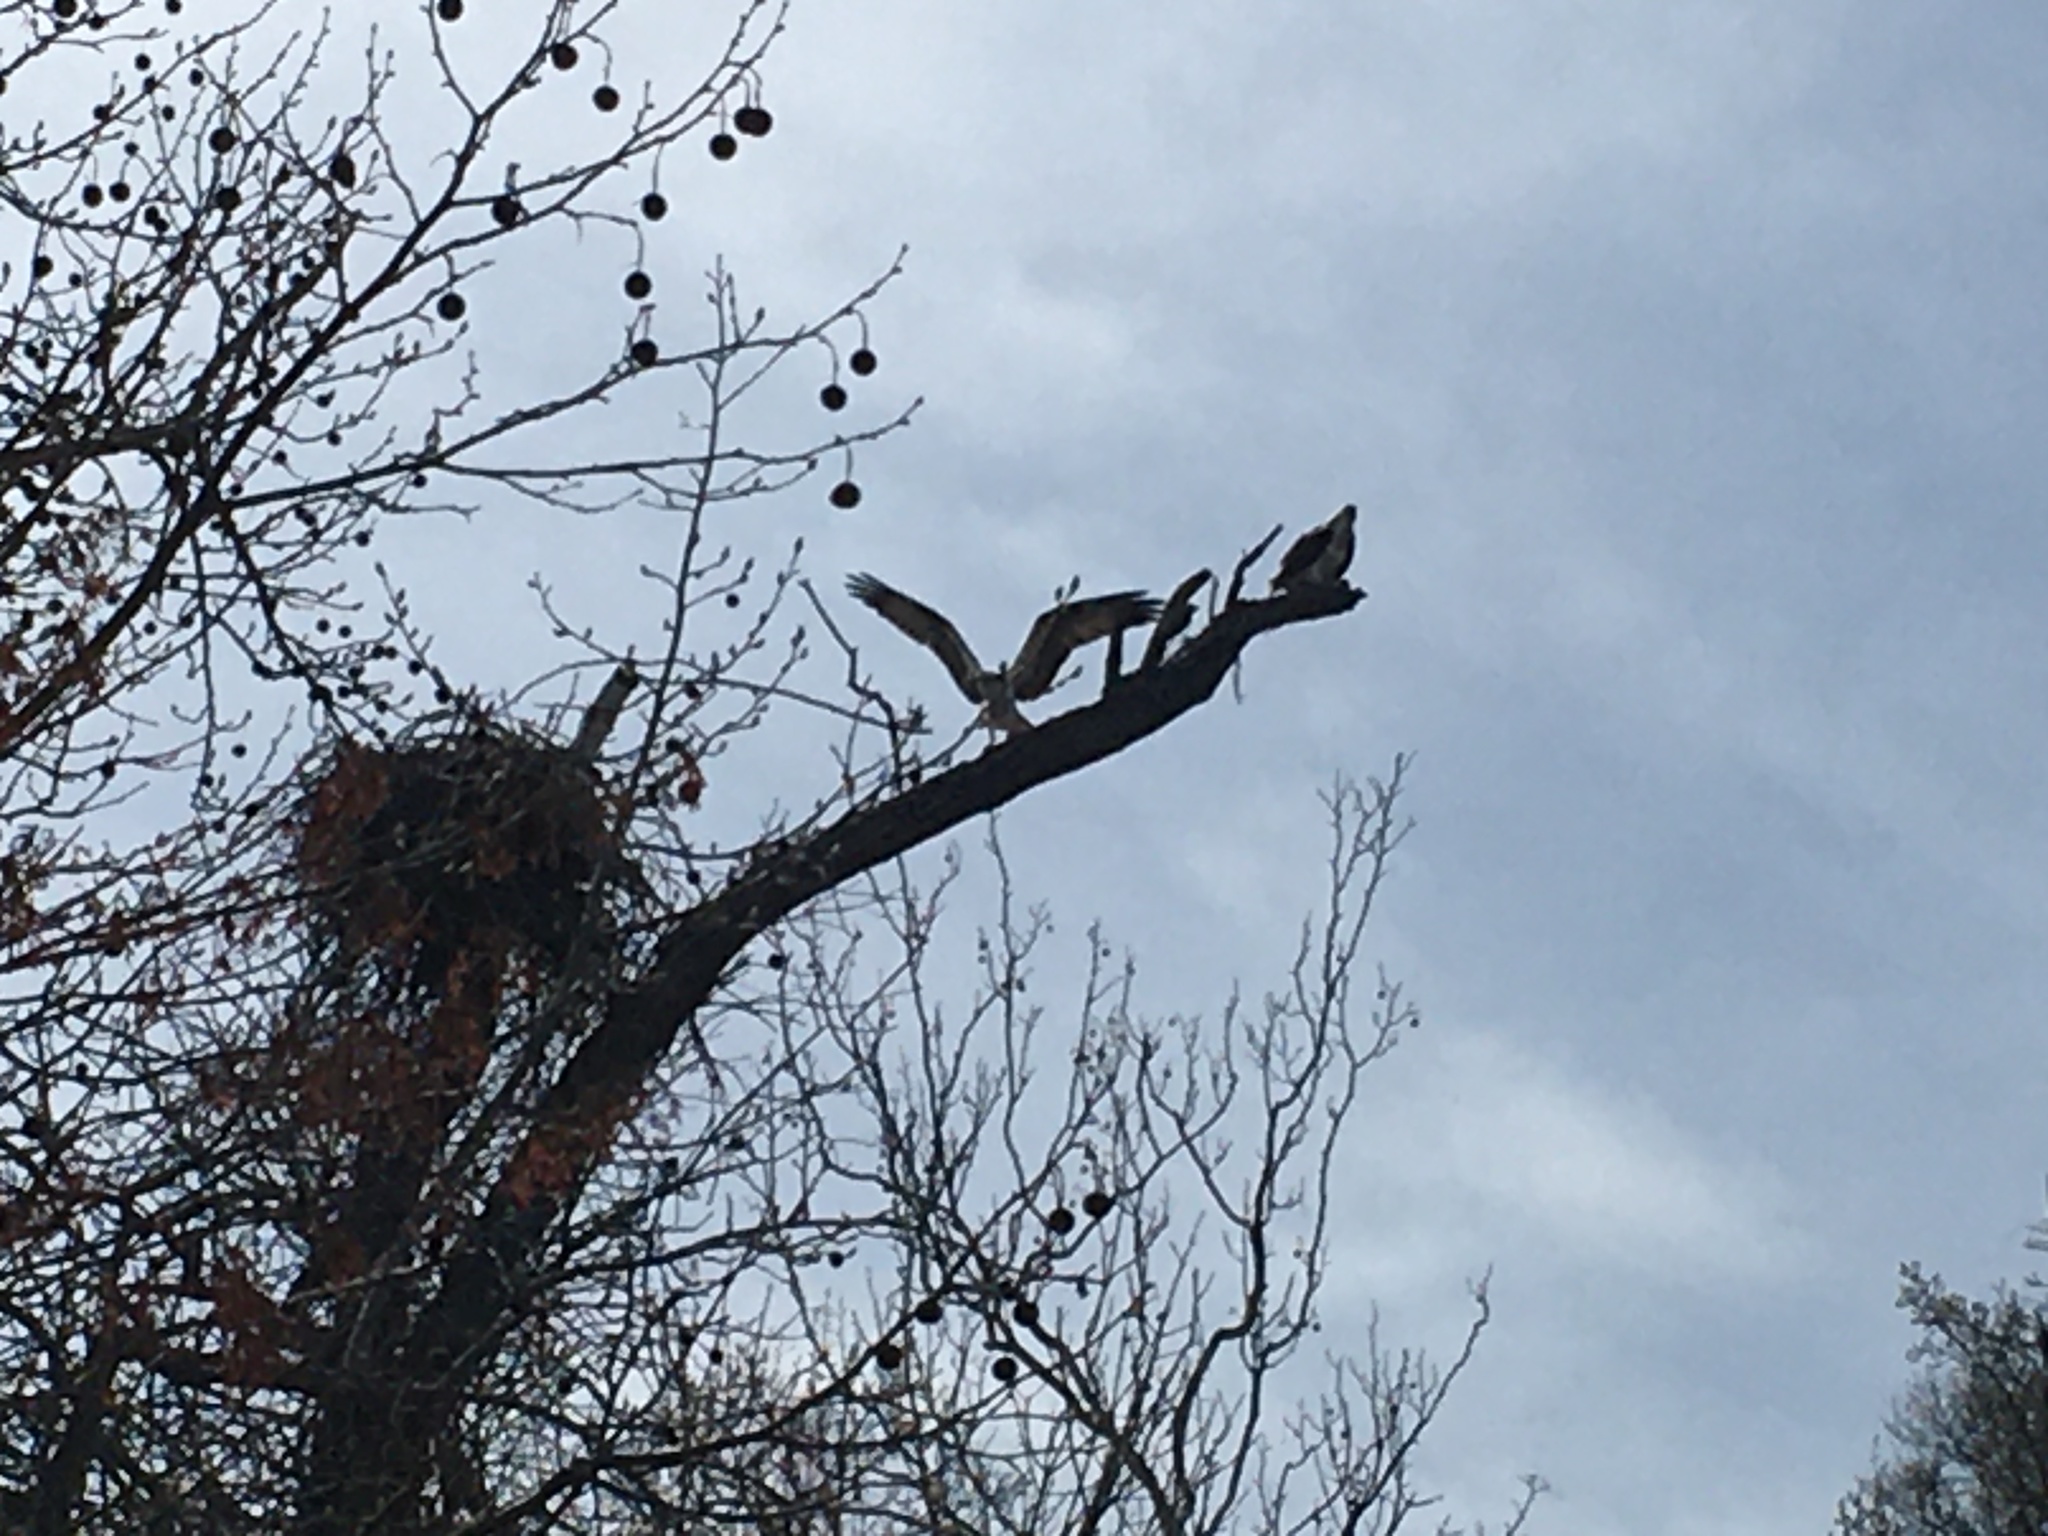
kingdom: Animalia
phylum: Chordata
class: Aves
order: Accipitriformes
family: Pandionidae
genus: Pandion
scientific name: Pandion haliaetus
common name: Osprey
